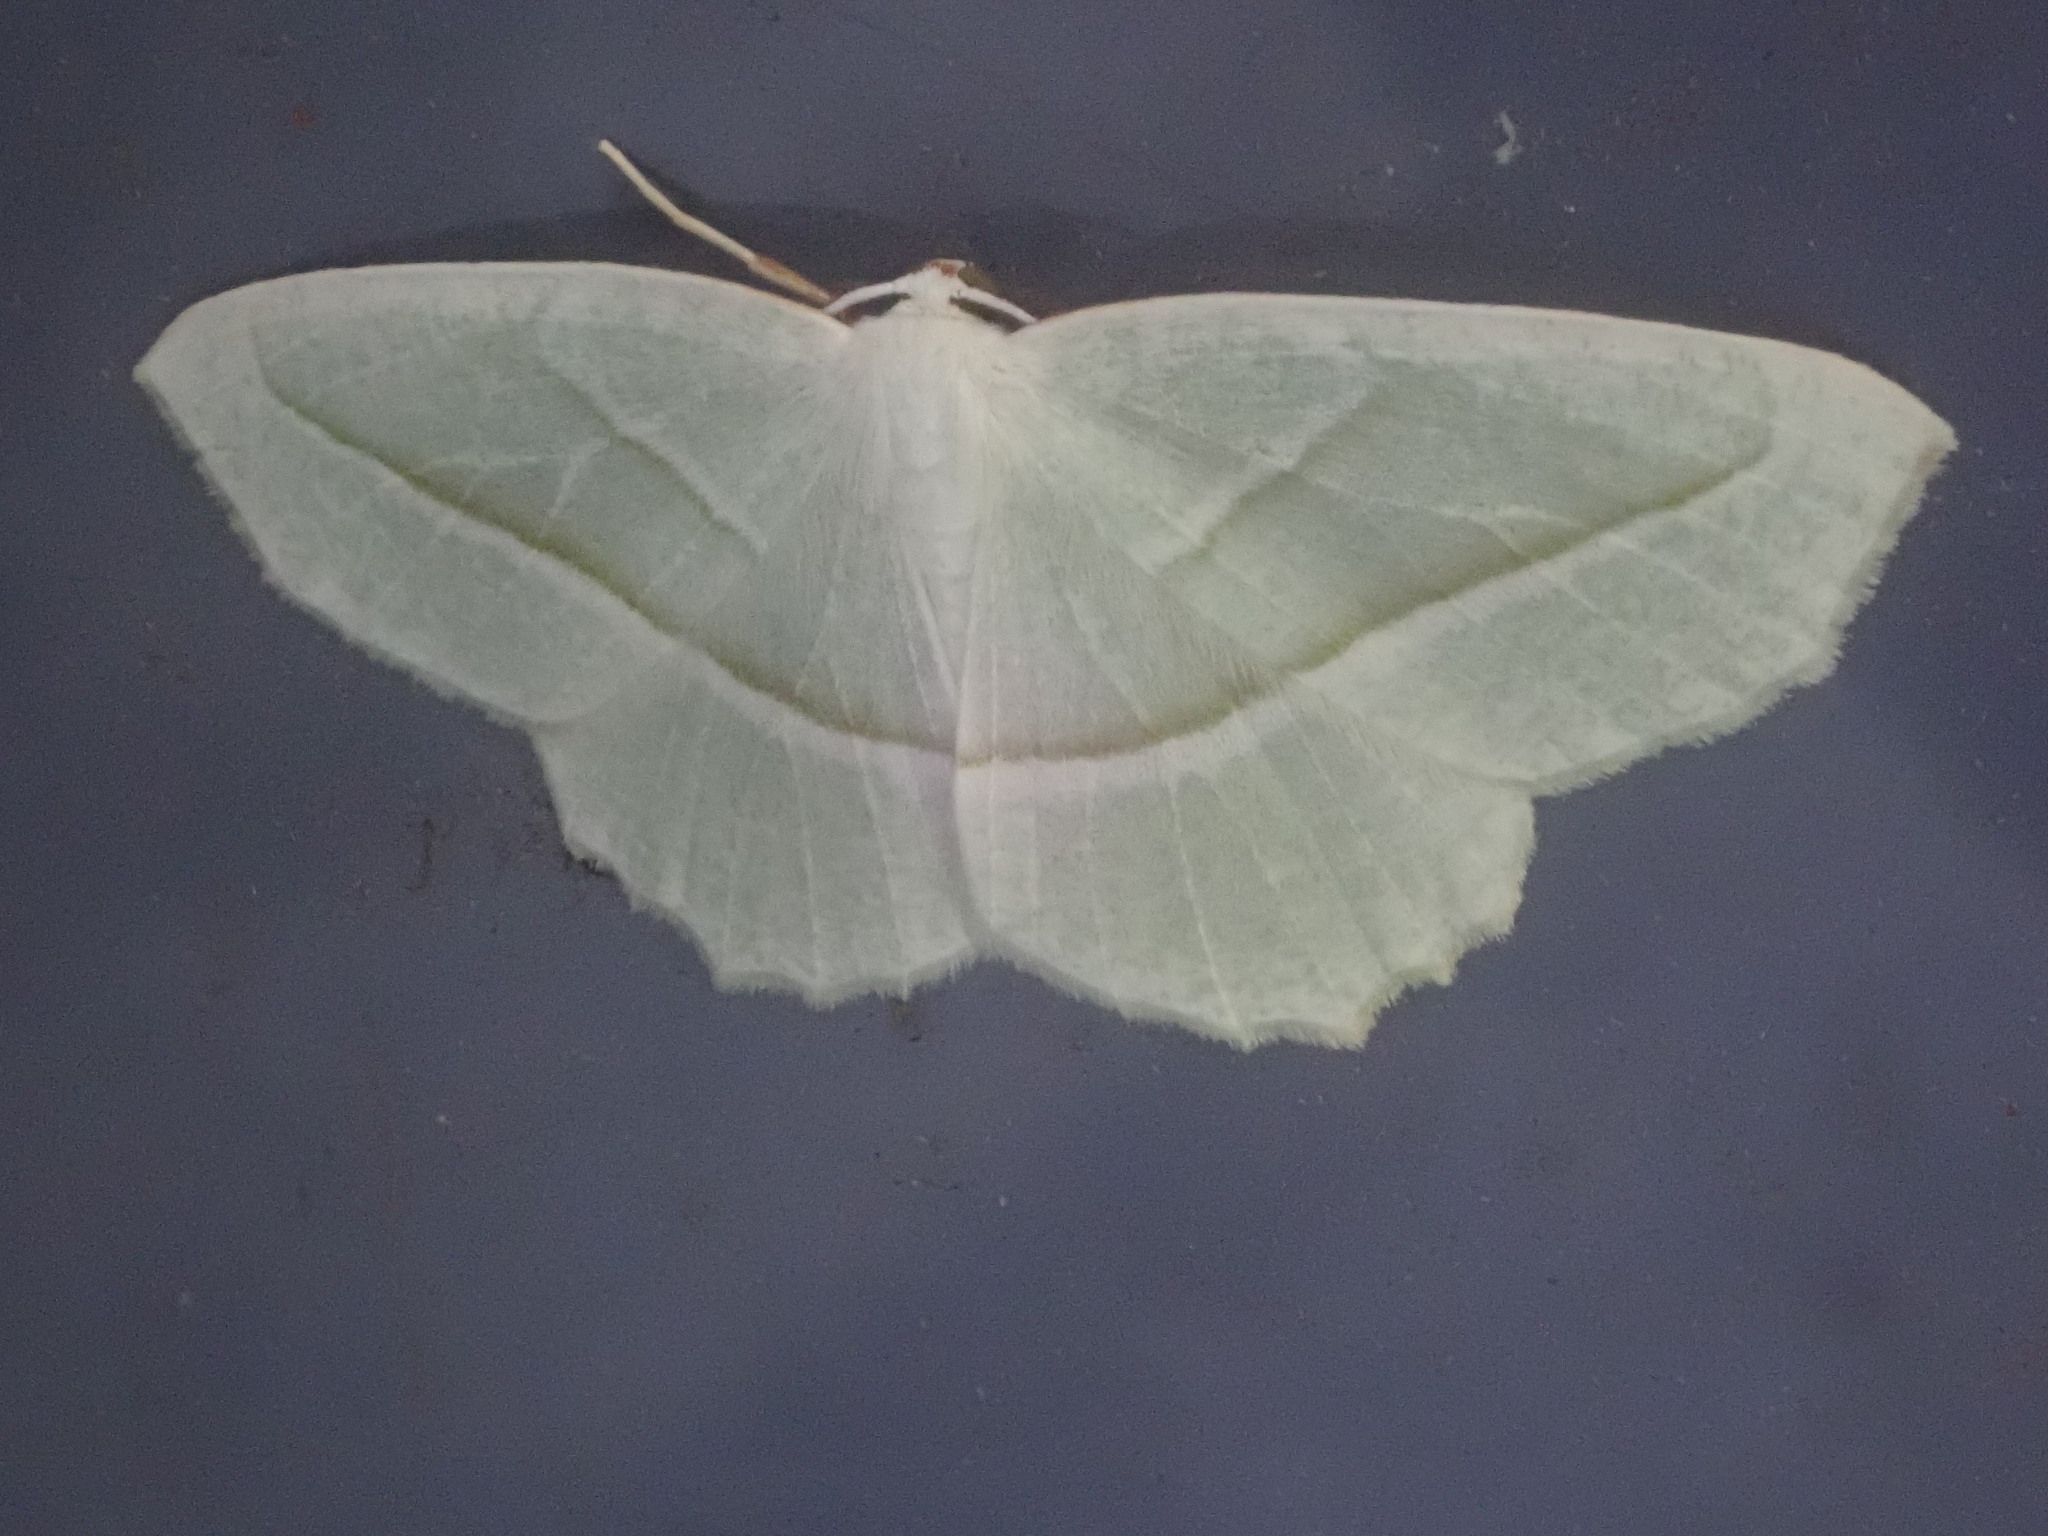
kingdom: Animalia
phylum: Arthropoda
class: Insecta
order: Lepidoptera
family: Geometridae
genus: Campaea
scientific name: Campaea perlata
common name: Fringed looper
